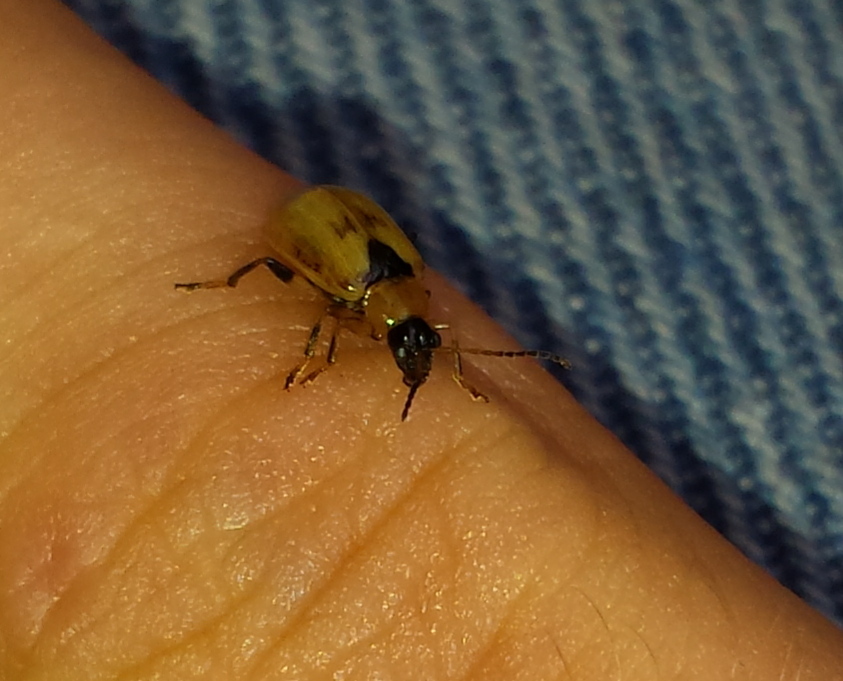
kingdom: Animalia
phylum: Arthropoda
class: Insecta
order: Coleoptera
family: Chrysomelidae
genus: Cerotoma
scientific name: Cerotoma trifurcata
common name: Bean leaf beetle
